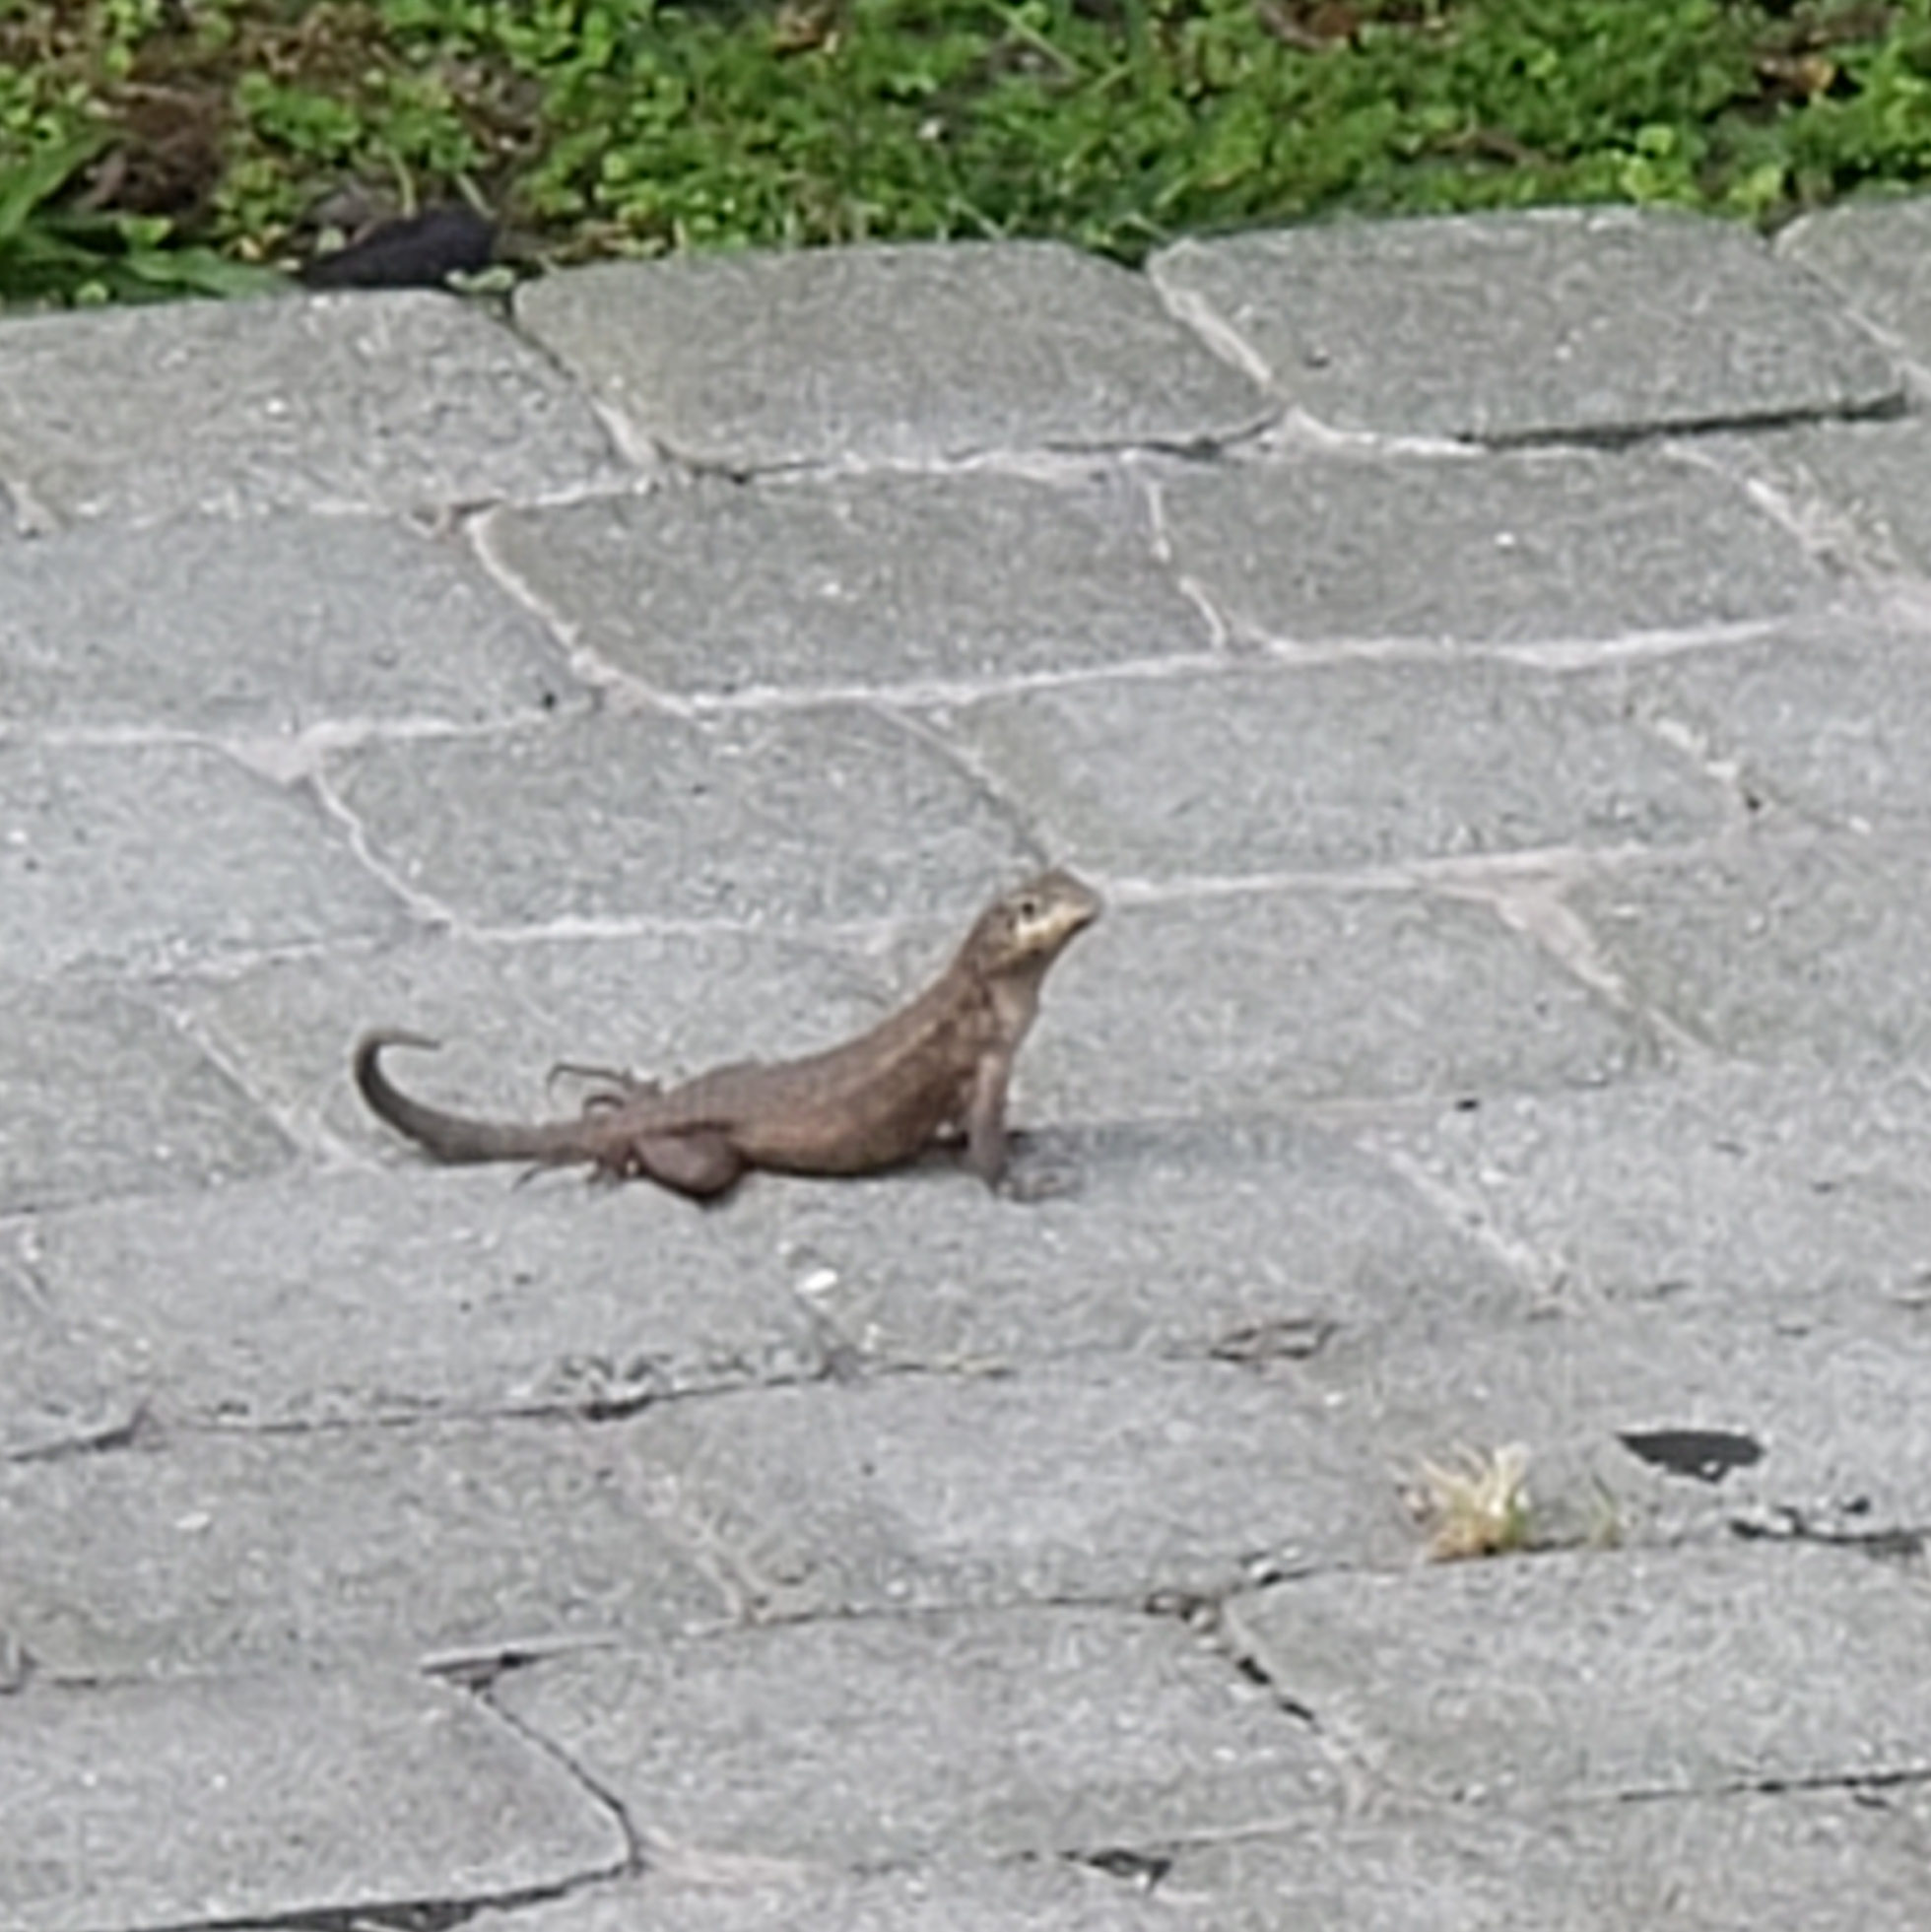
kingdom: Animalia
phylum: Chordata
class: Squamata
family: Leiocephalidae
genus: Leiocephalus
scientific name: Leiocephalus carinatus
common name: Northern curly-tailed lizard
